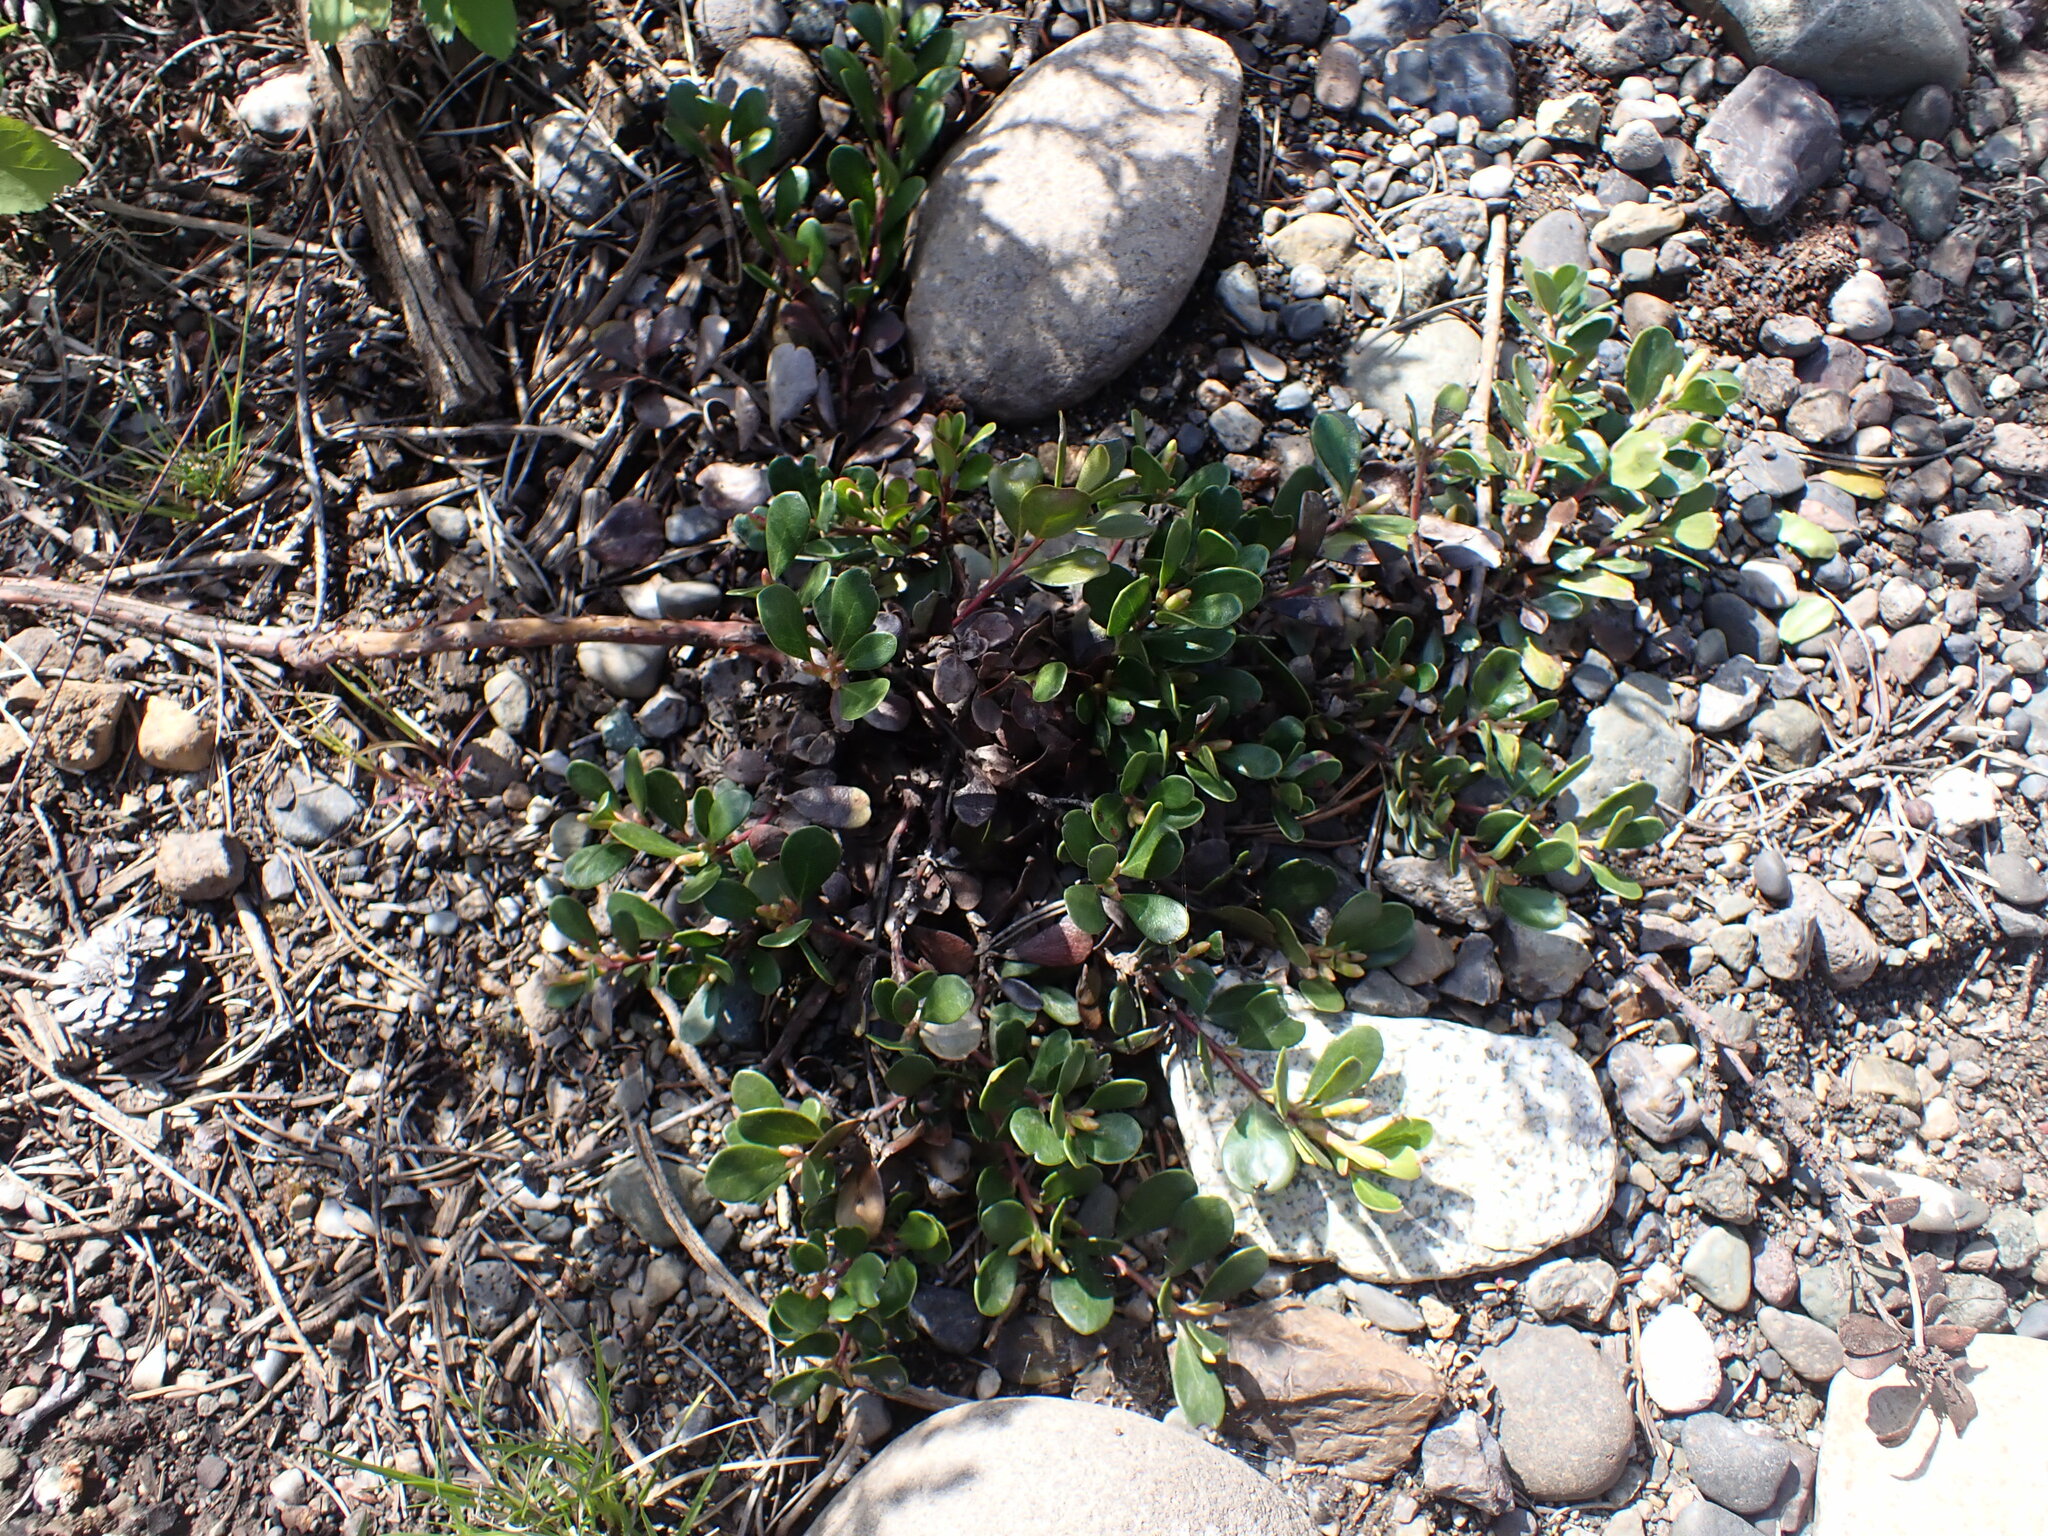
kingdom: Plantae
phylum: Tracheophyta
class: Magnoliopsida
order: Ericales
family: Ericaceae
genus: Arctostaphylos
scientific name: Arctostaphylos uva-ursi
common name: Bearberry
